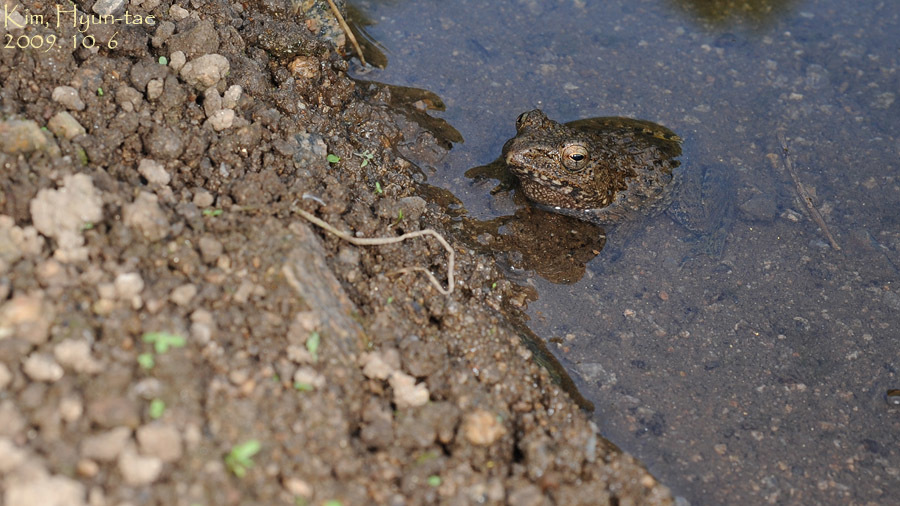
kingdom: Animalia
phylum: Chordata
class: Amphibia
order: Anura
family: Ranidae
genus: Glandirana
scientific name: Glandirana emeljanovi
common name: Northeast china rough-skinned frog
